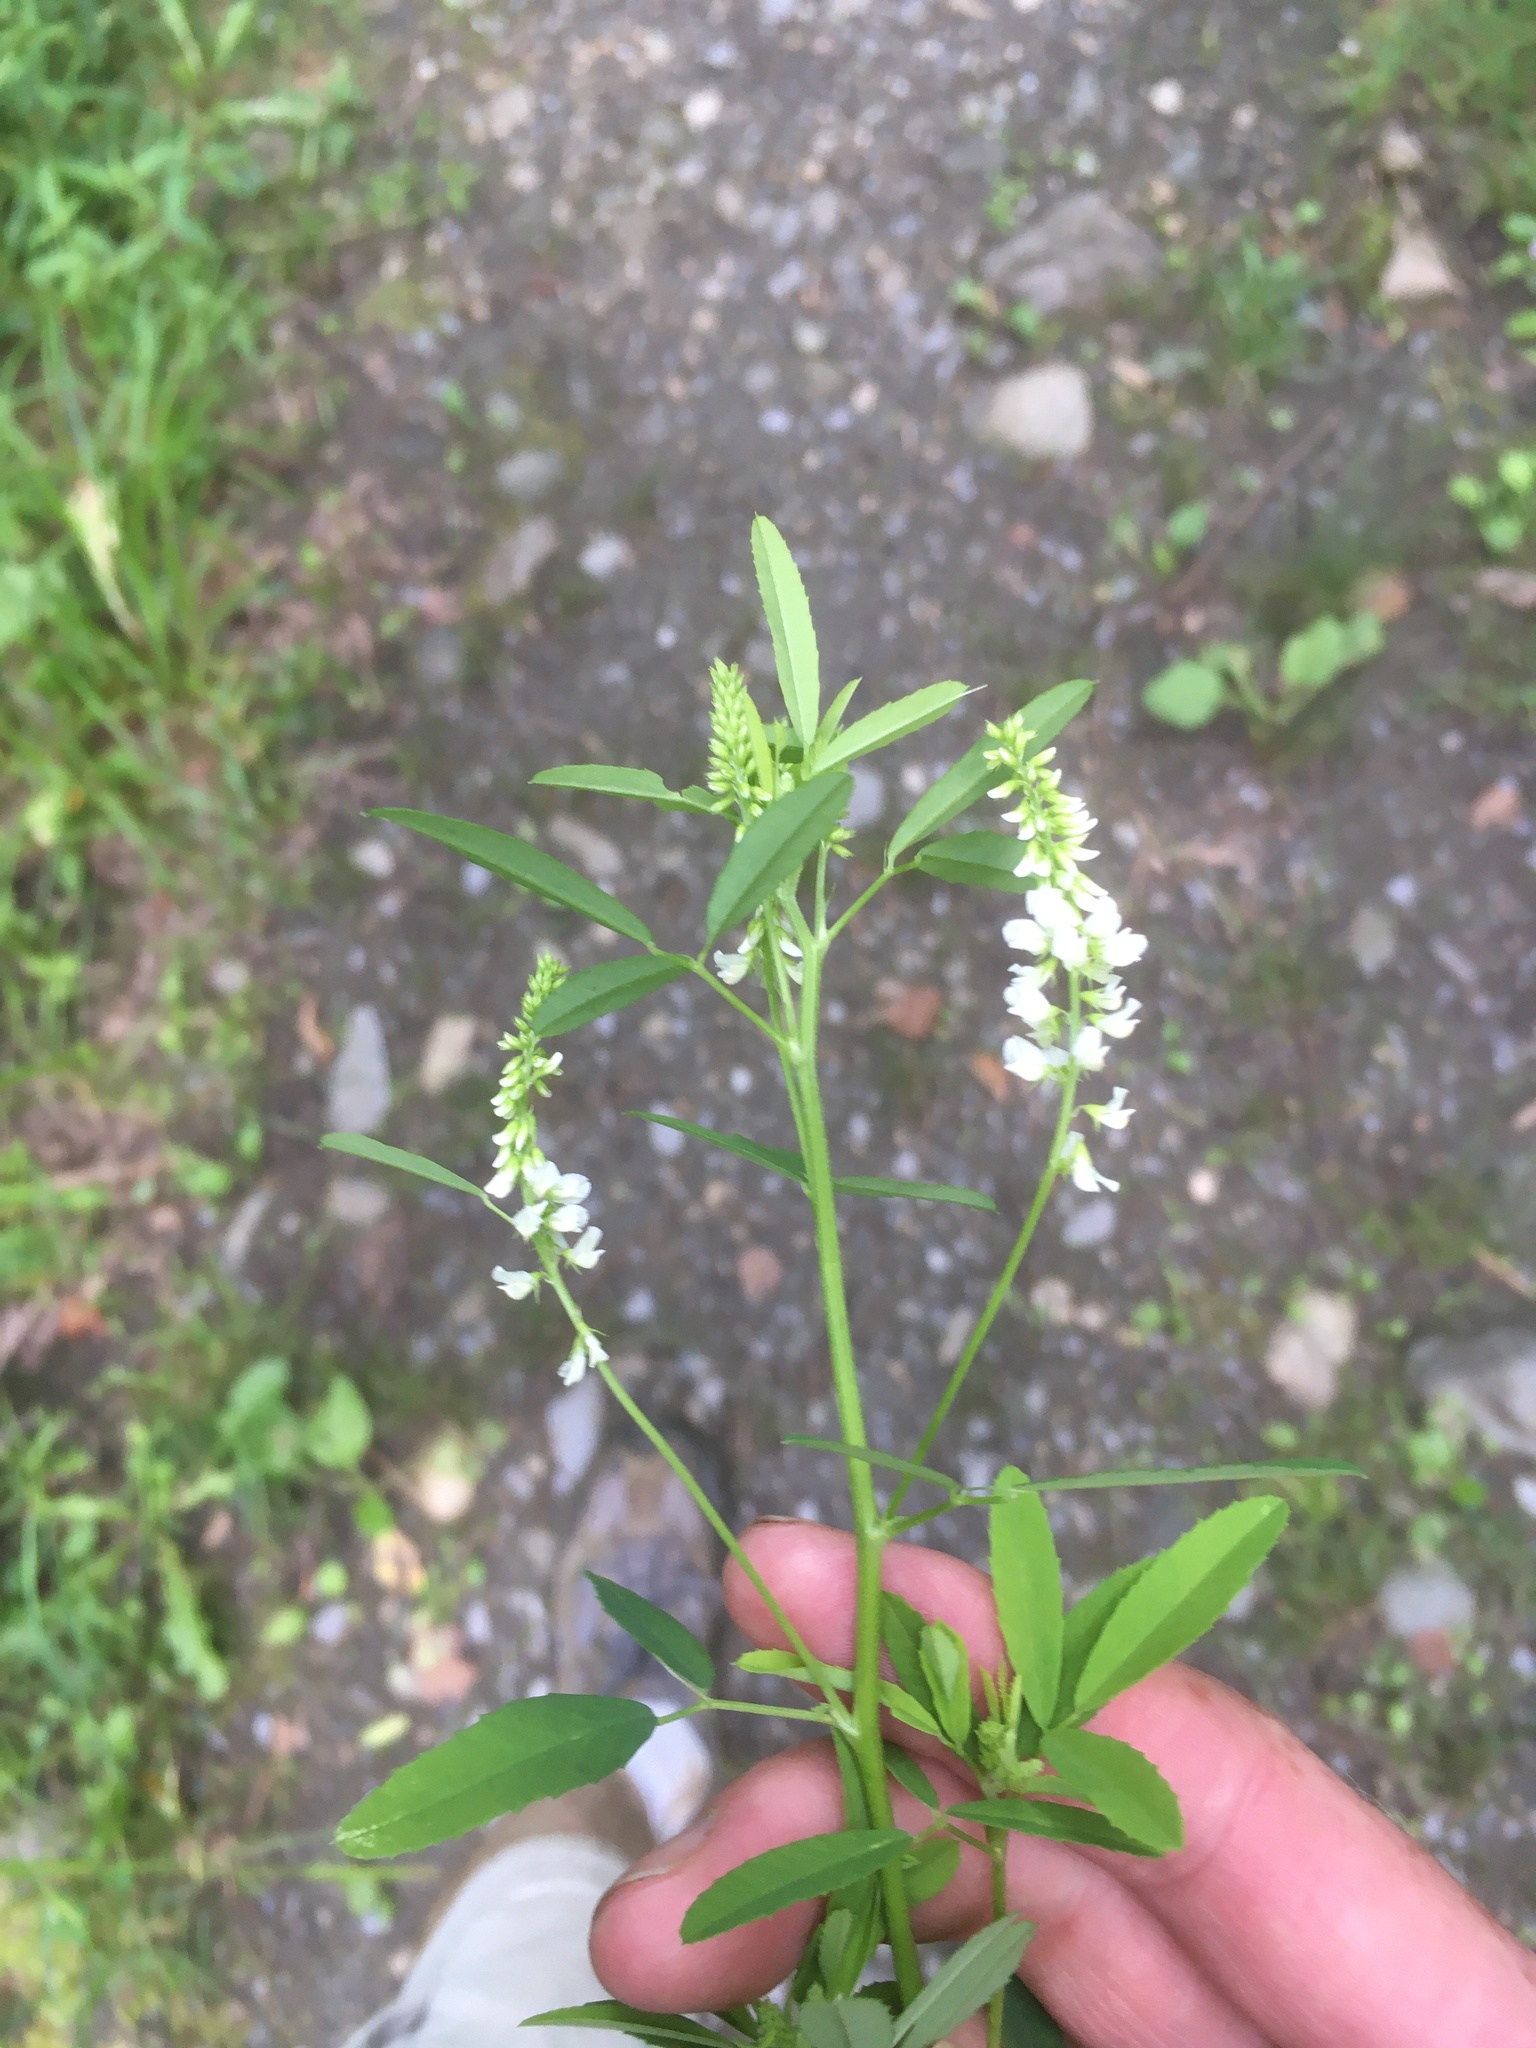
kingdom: Plantae
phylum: Tracheophyta
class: Magnoliopsida
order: Fabales
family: Fabaceae
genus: Melilotus
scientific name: Melilotus albus
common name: White melilot
